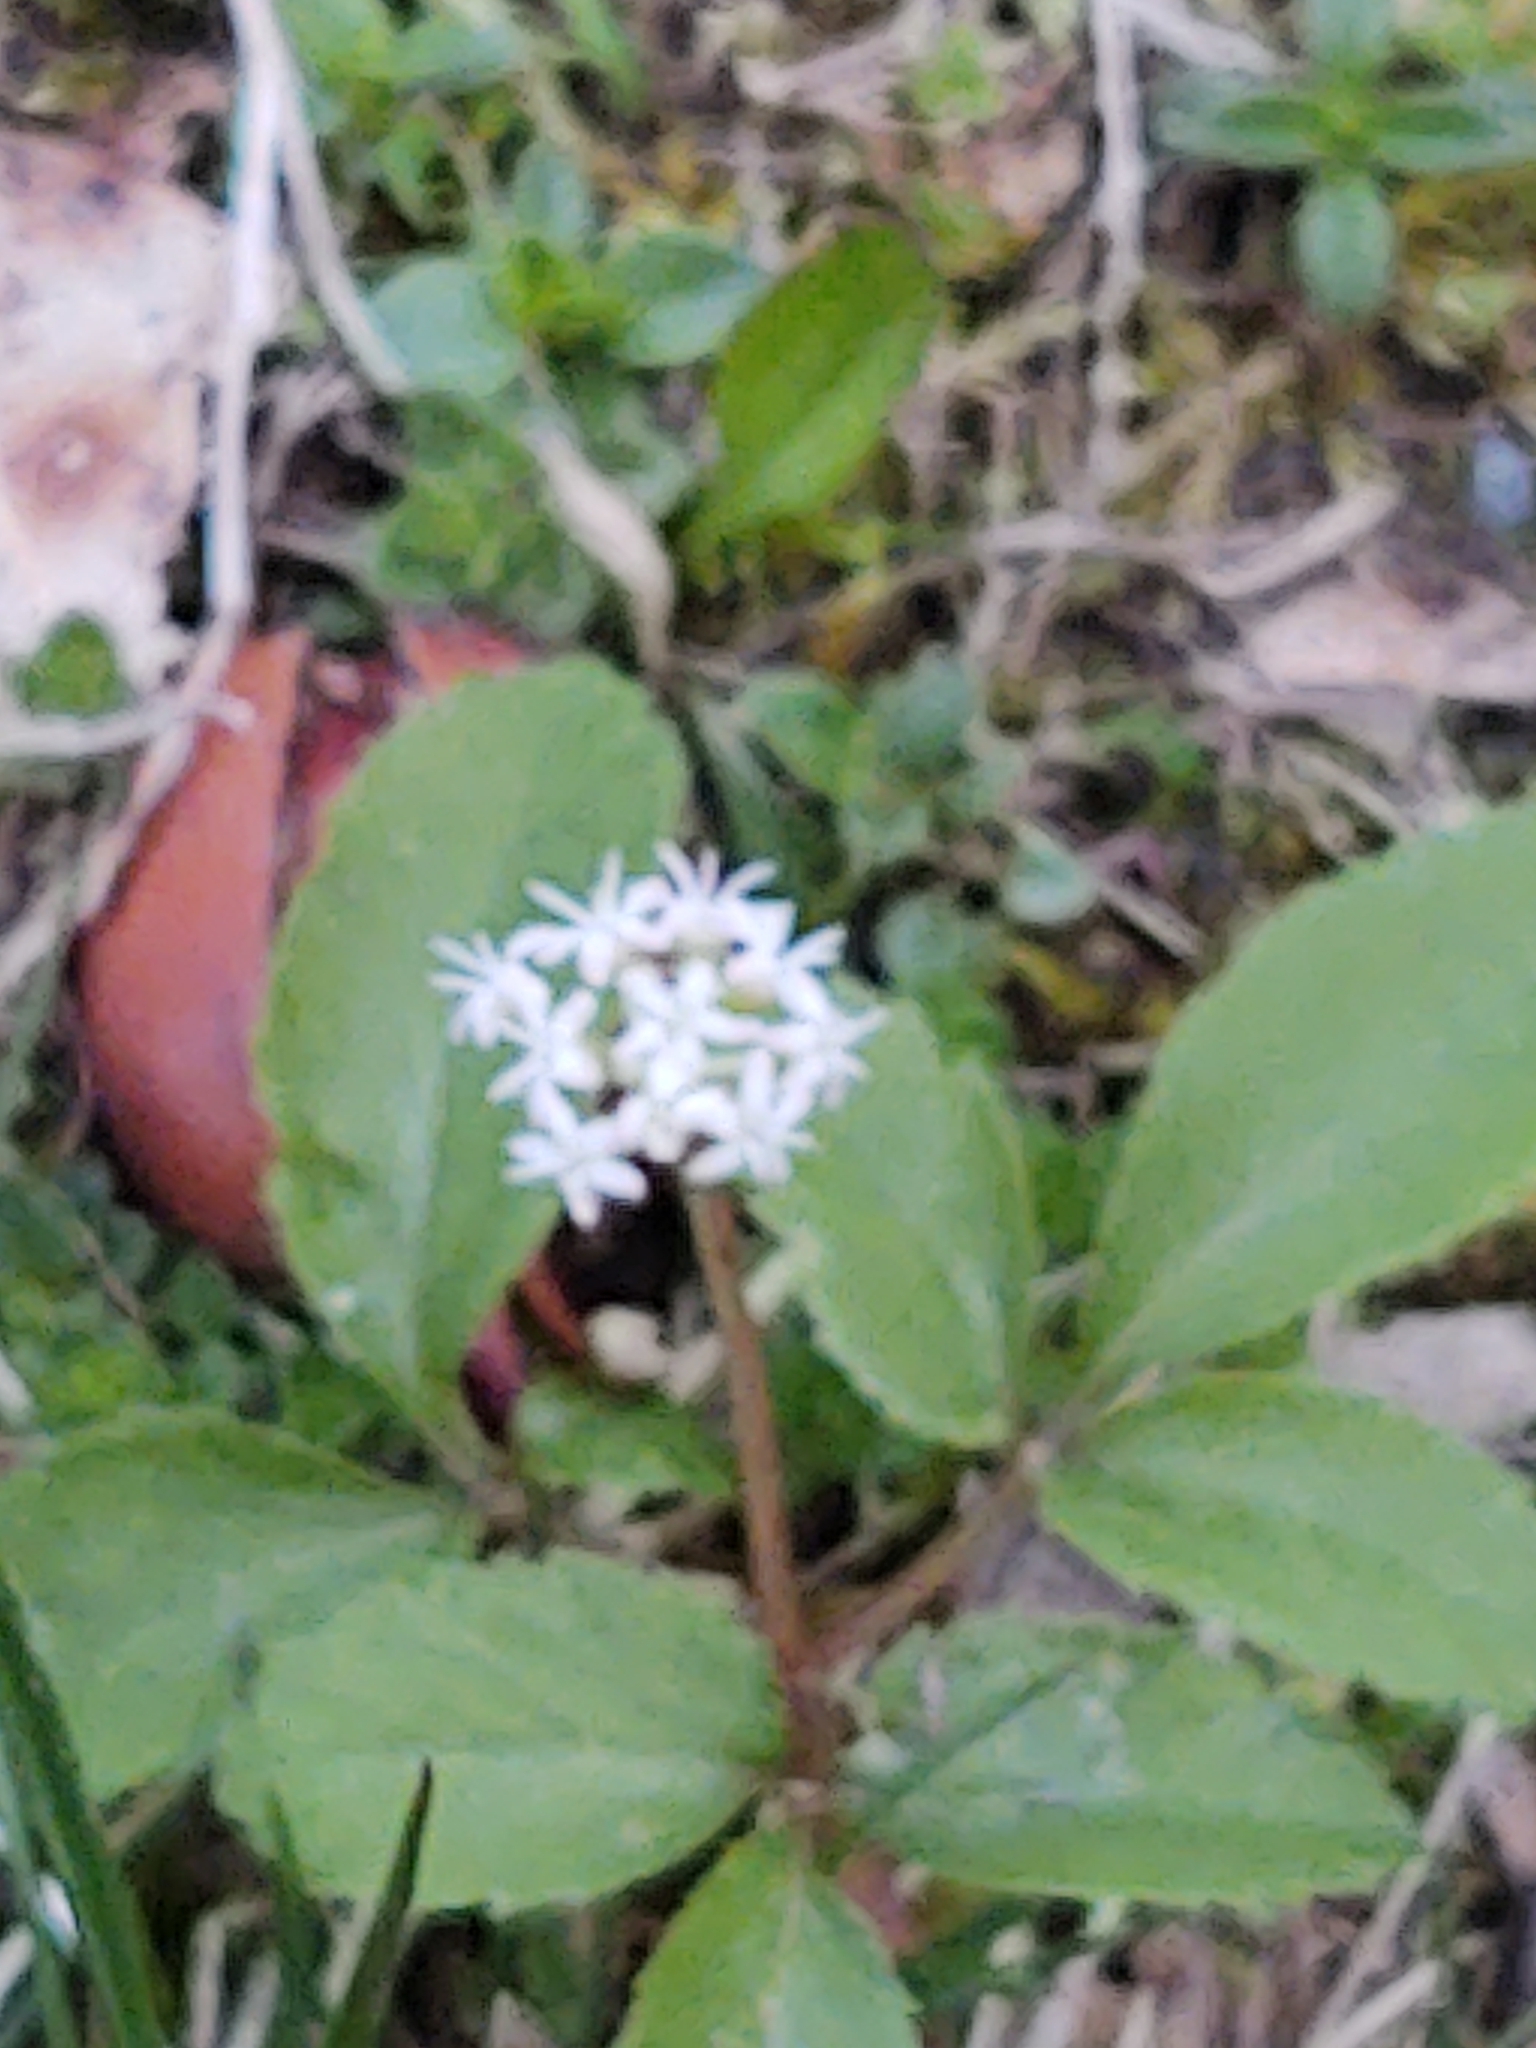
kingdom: Plantae
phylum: Tracheophyta
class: Magnoliopsida
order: Apiales
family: Araliaceae
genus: Panax
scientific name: Panax trifolius
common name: Dwarf ginseng
